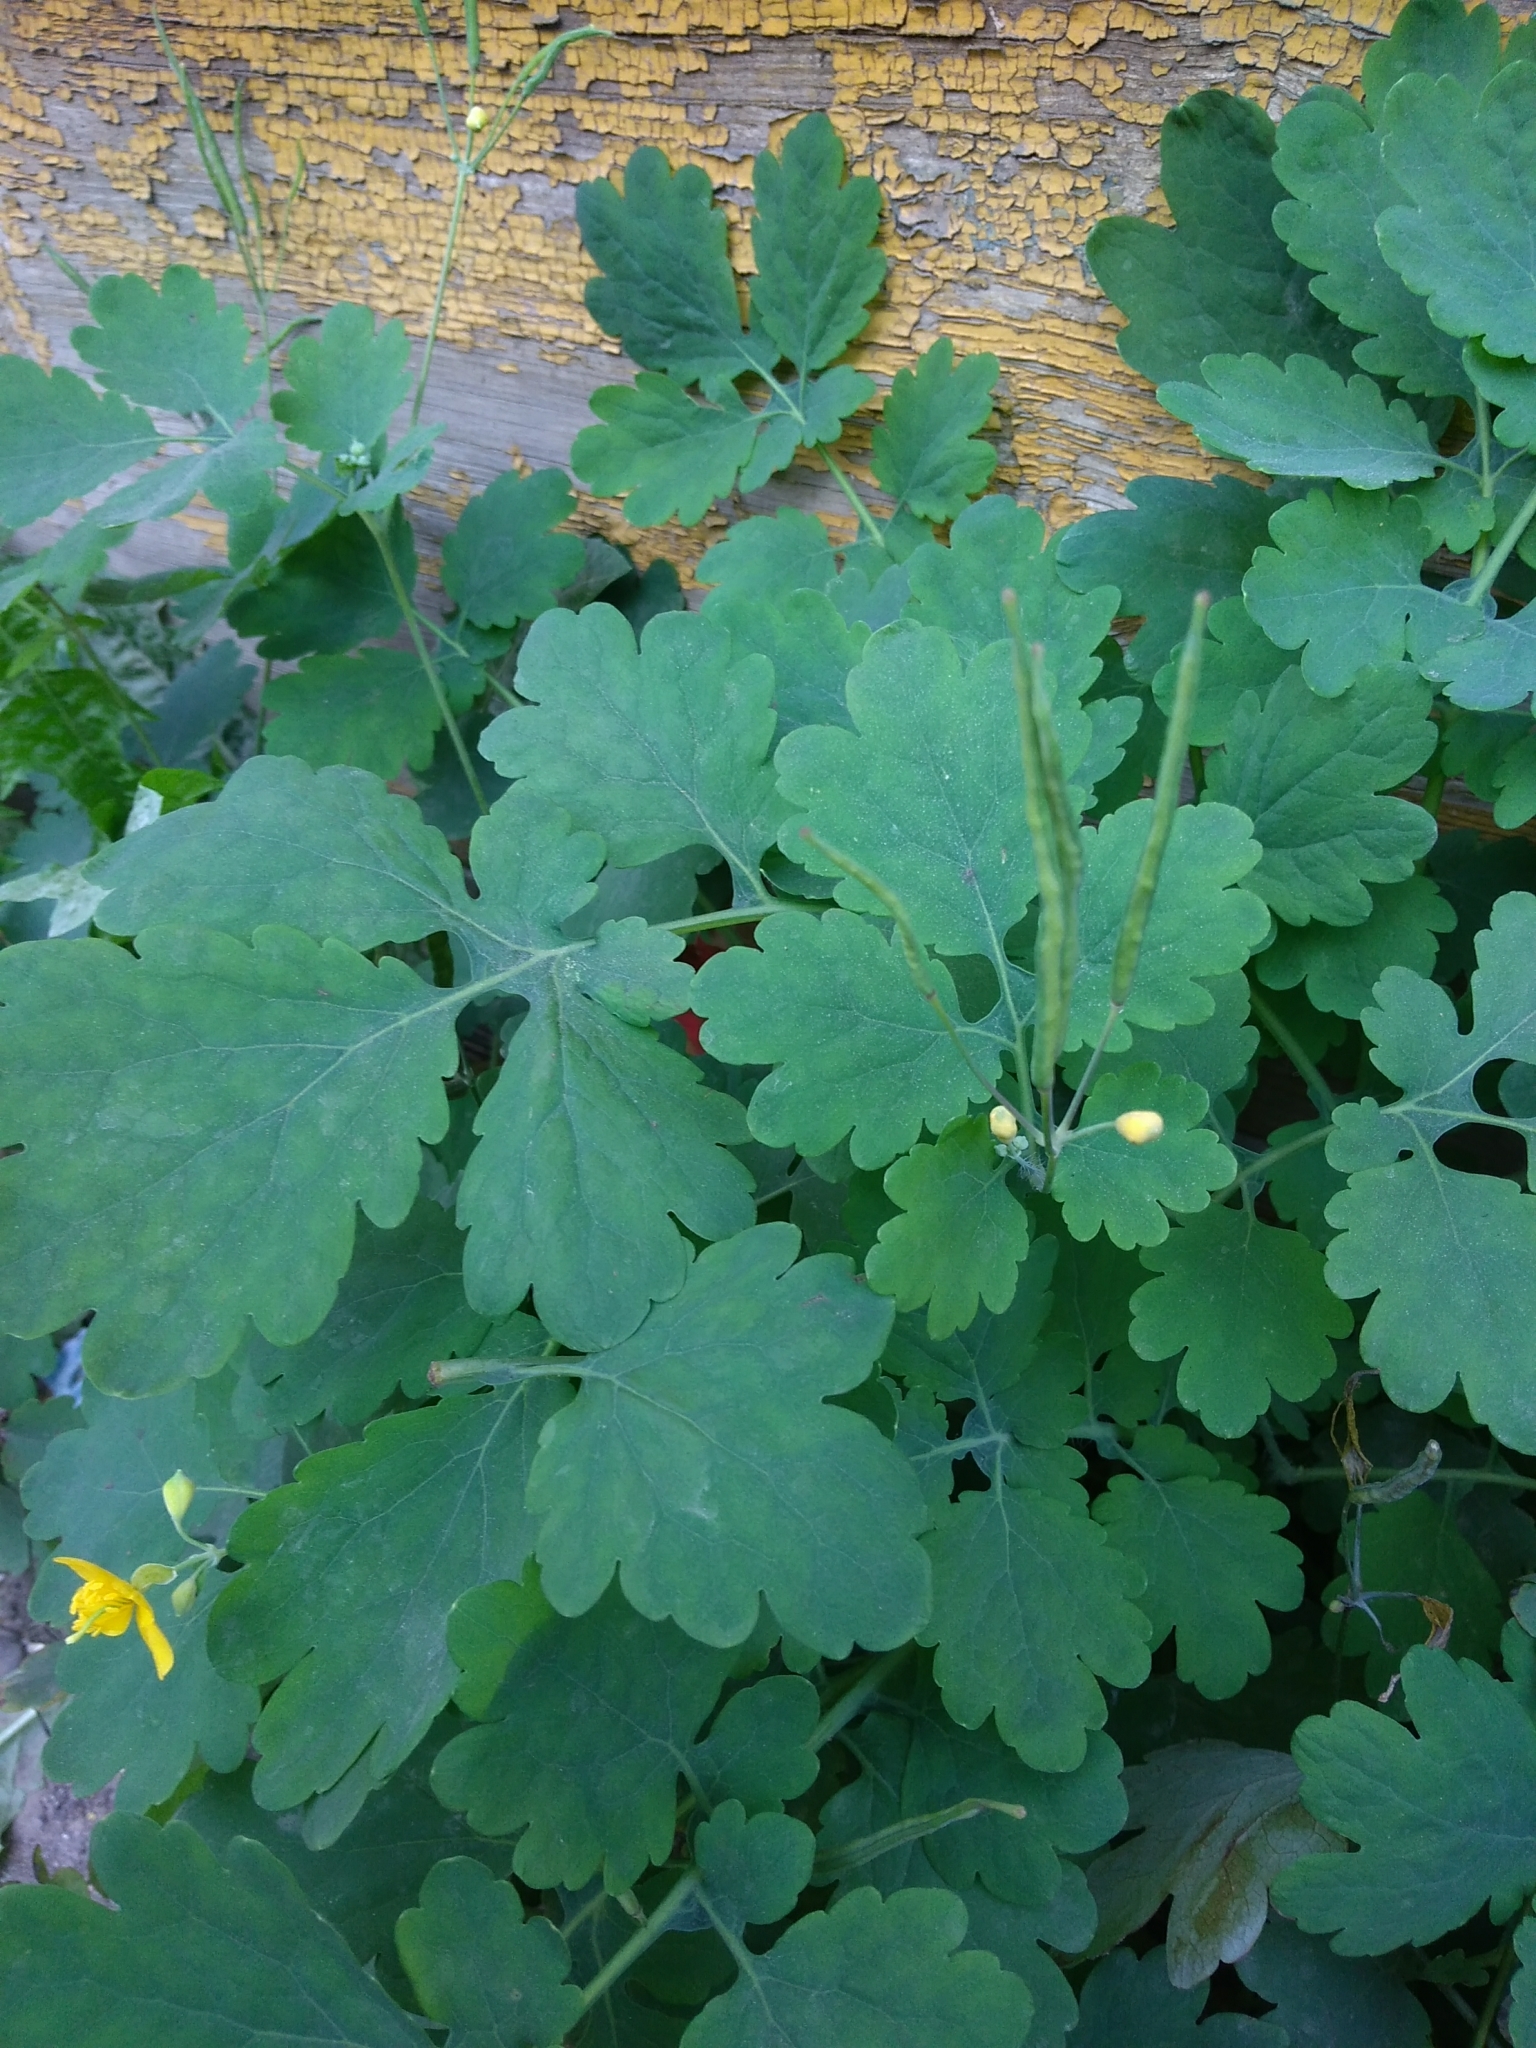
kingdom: Plantae
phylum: Tracheophyta
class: Magnoliopsida
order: Ranunculales
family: Papaveraceae
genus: Chelidonium
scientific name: Chelidonium majus
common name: Greater celandine
